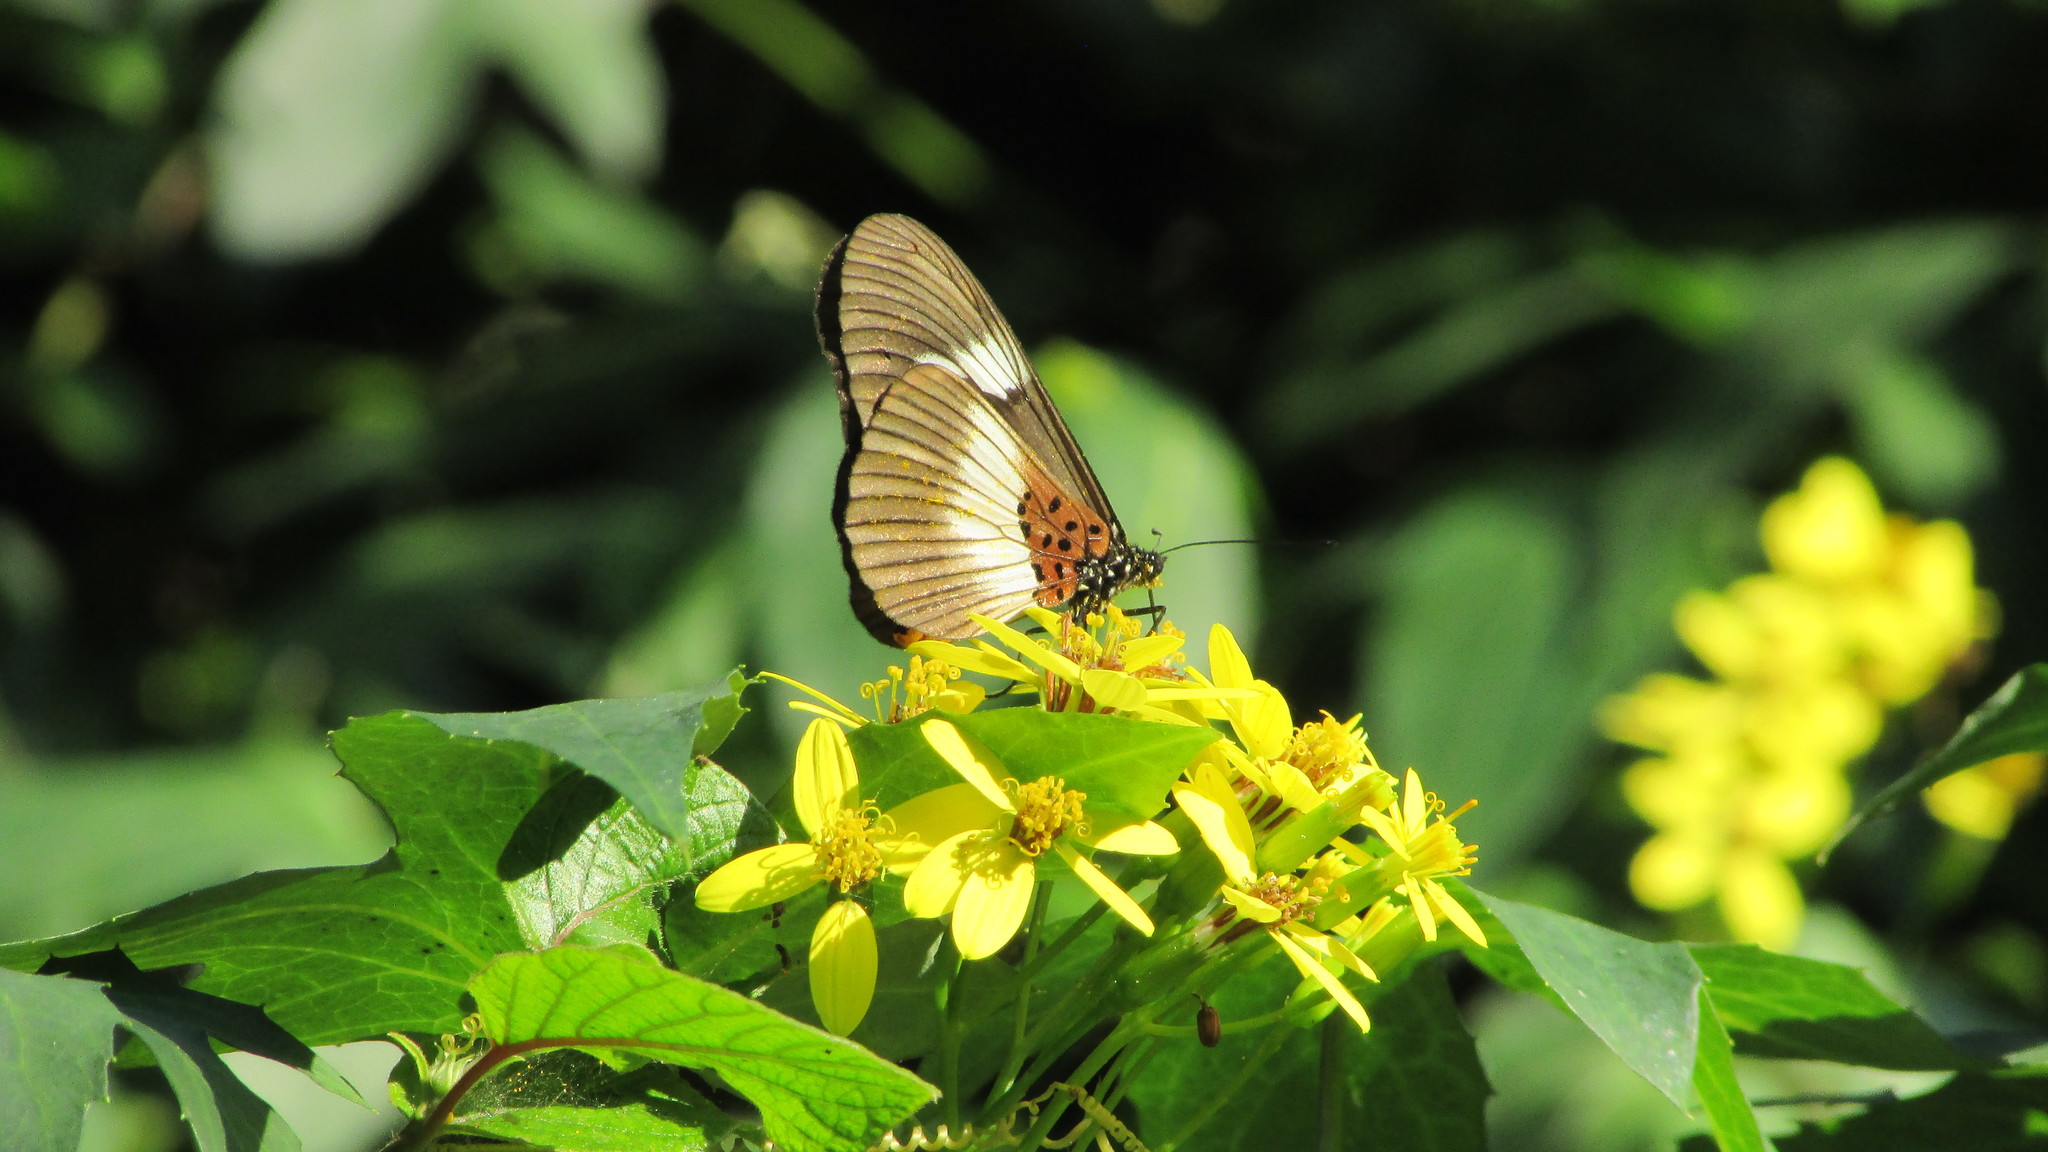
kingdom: Animalia
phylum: Arthropoda
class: Insecta
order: Lepidoptera
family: Nymphalidae
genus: Acraea
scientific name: Acraea Bematistes aganice
